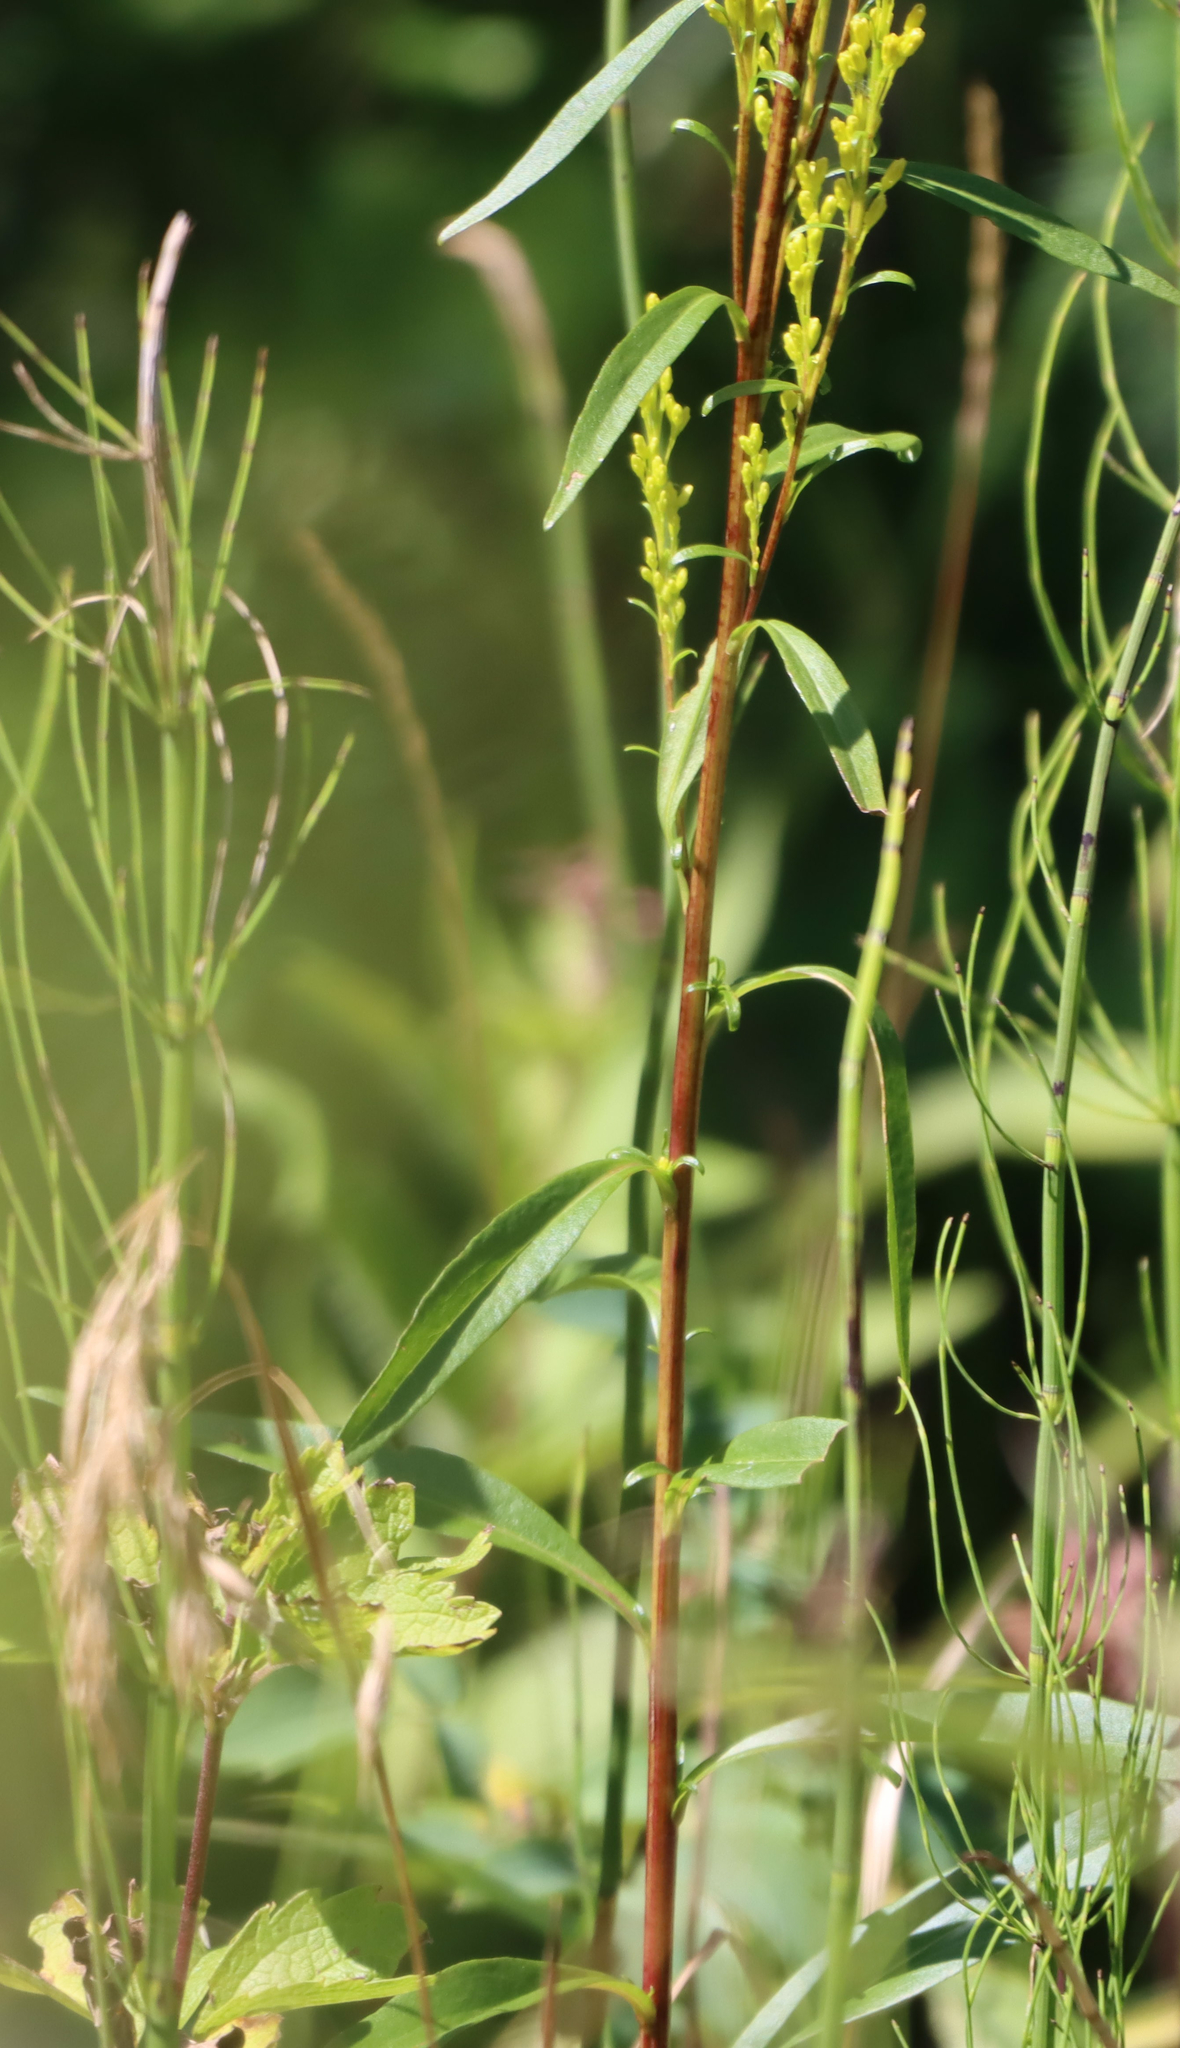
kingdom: Plantae
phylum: Tracheophyta
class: Magnoliopsida
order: Asterales
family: Asteraceae
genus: Solidago
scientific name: Solidago uliginosa
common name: Bog goldenrod
